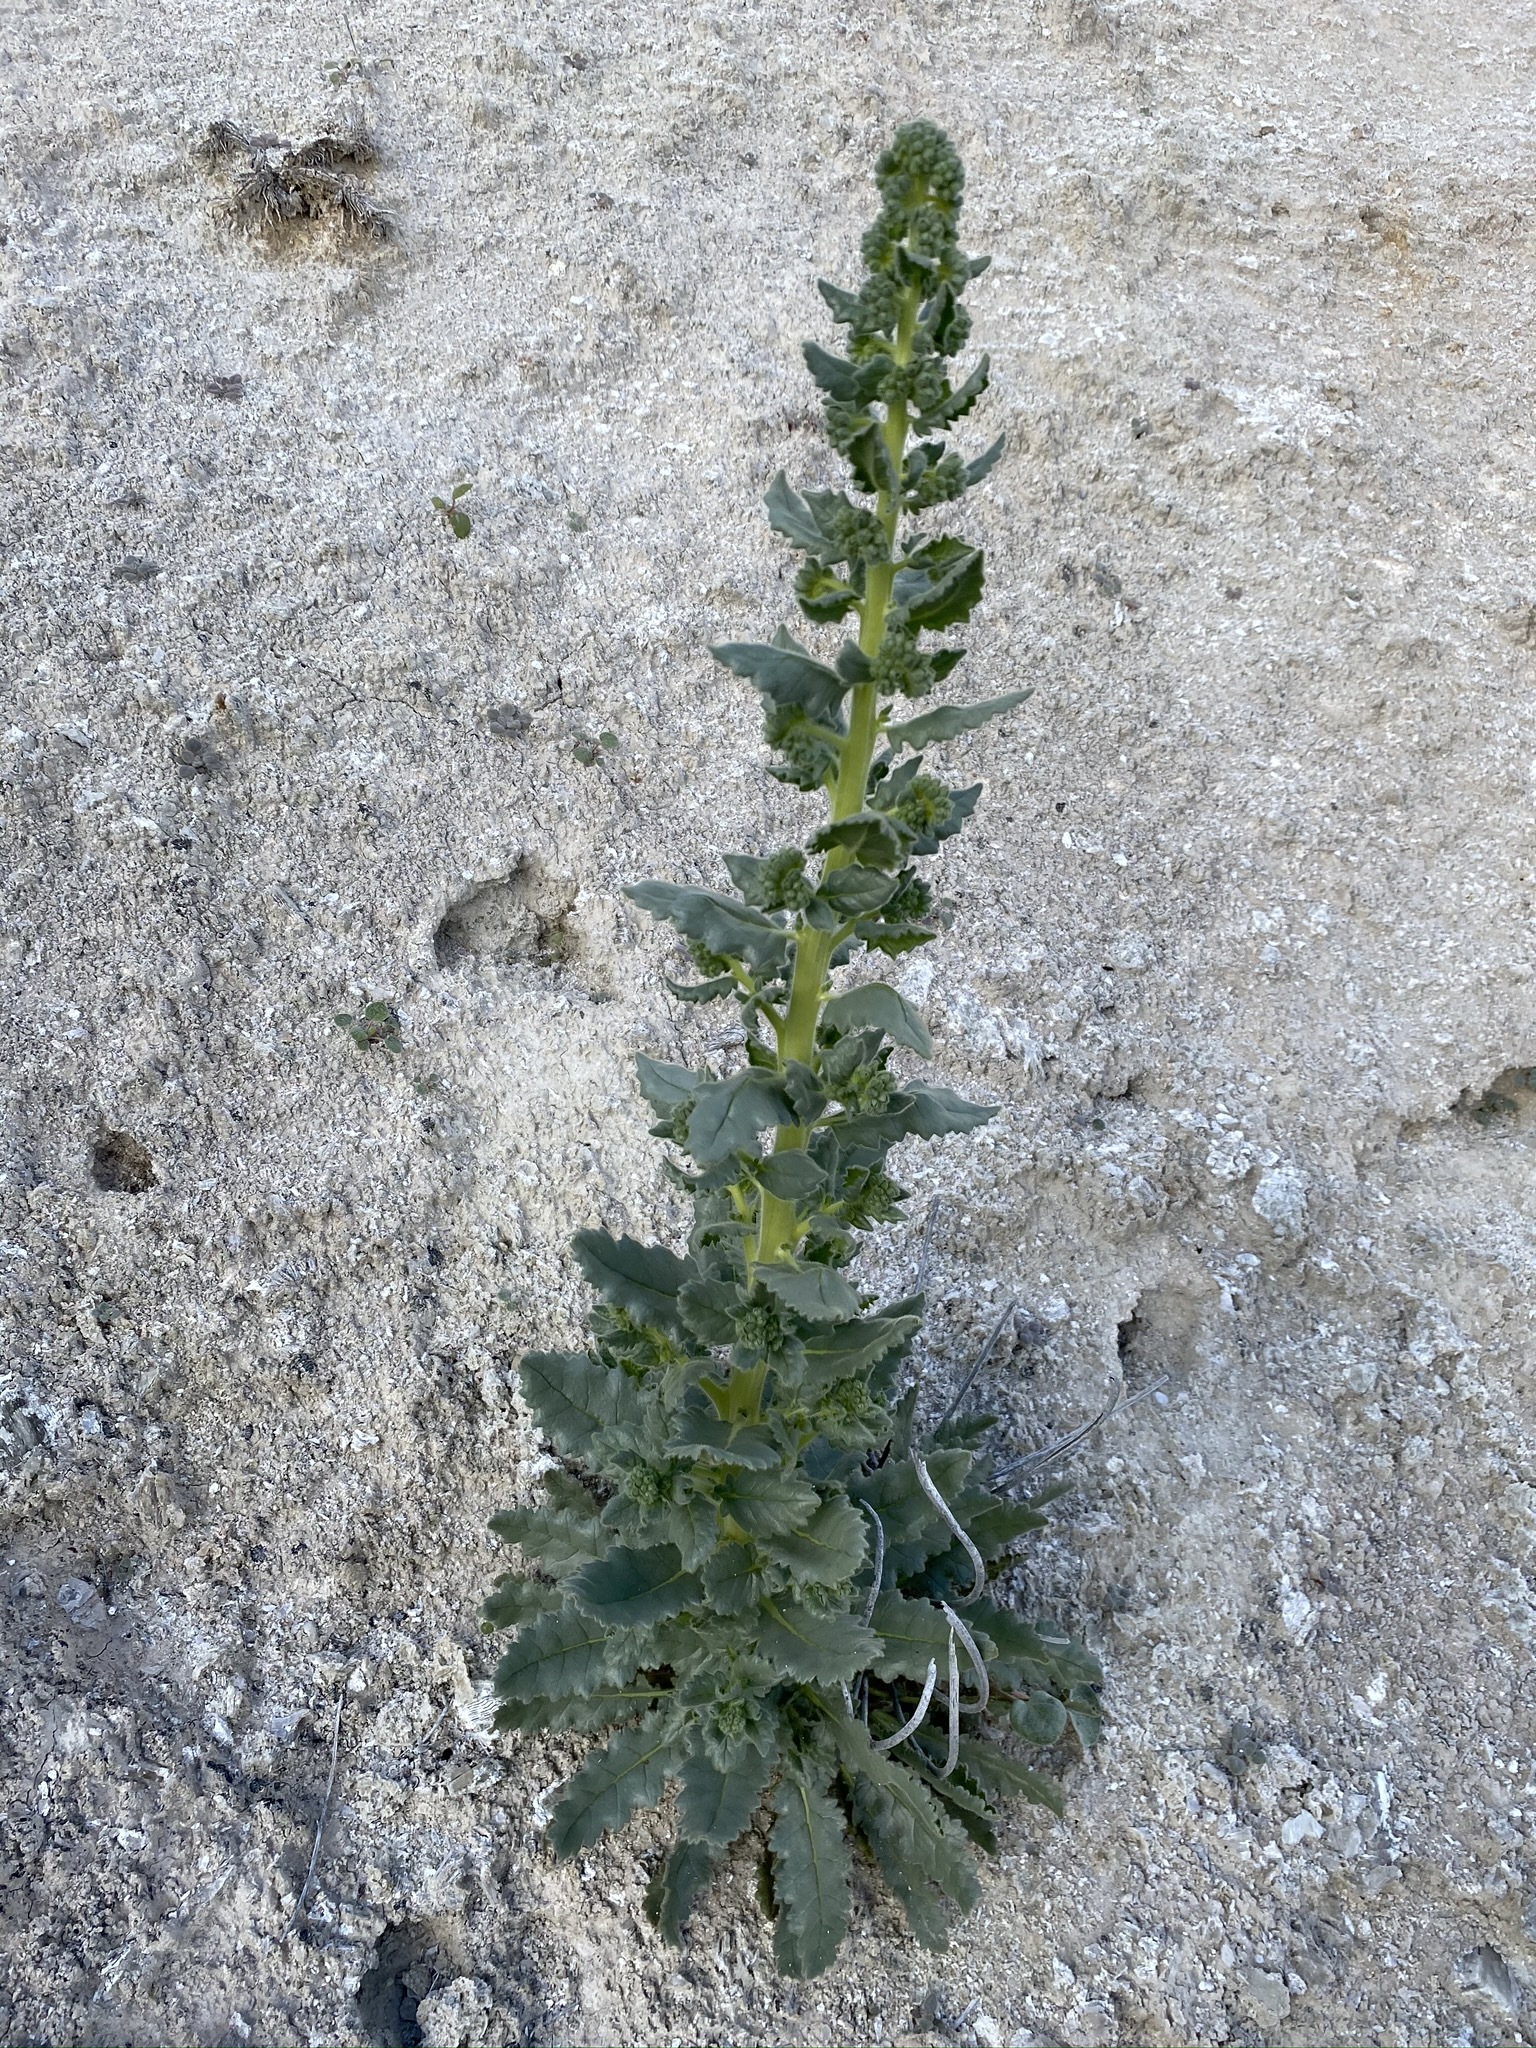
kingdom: Plantae
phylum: Tracheophyta
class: Magnoliopsida
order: Boraginales
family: Hydrophyllaceae
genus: Phacelia
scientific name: Phacelia palmeri
